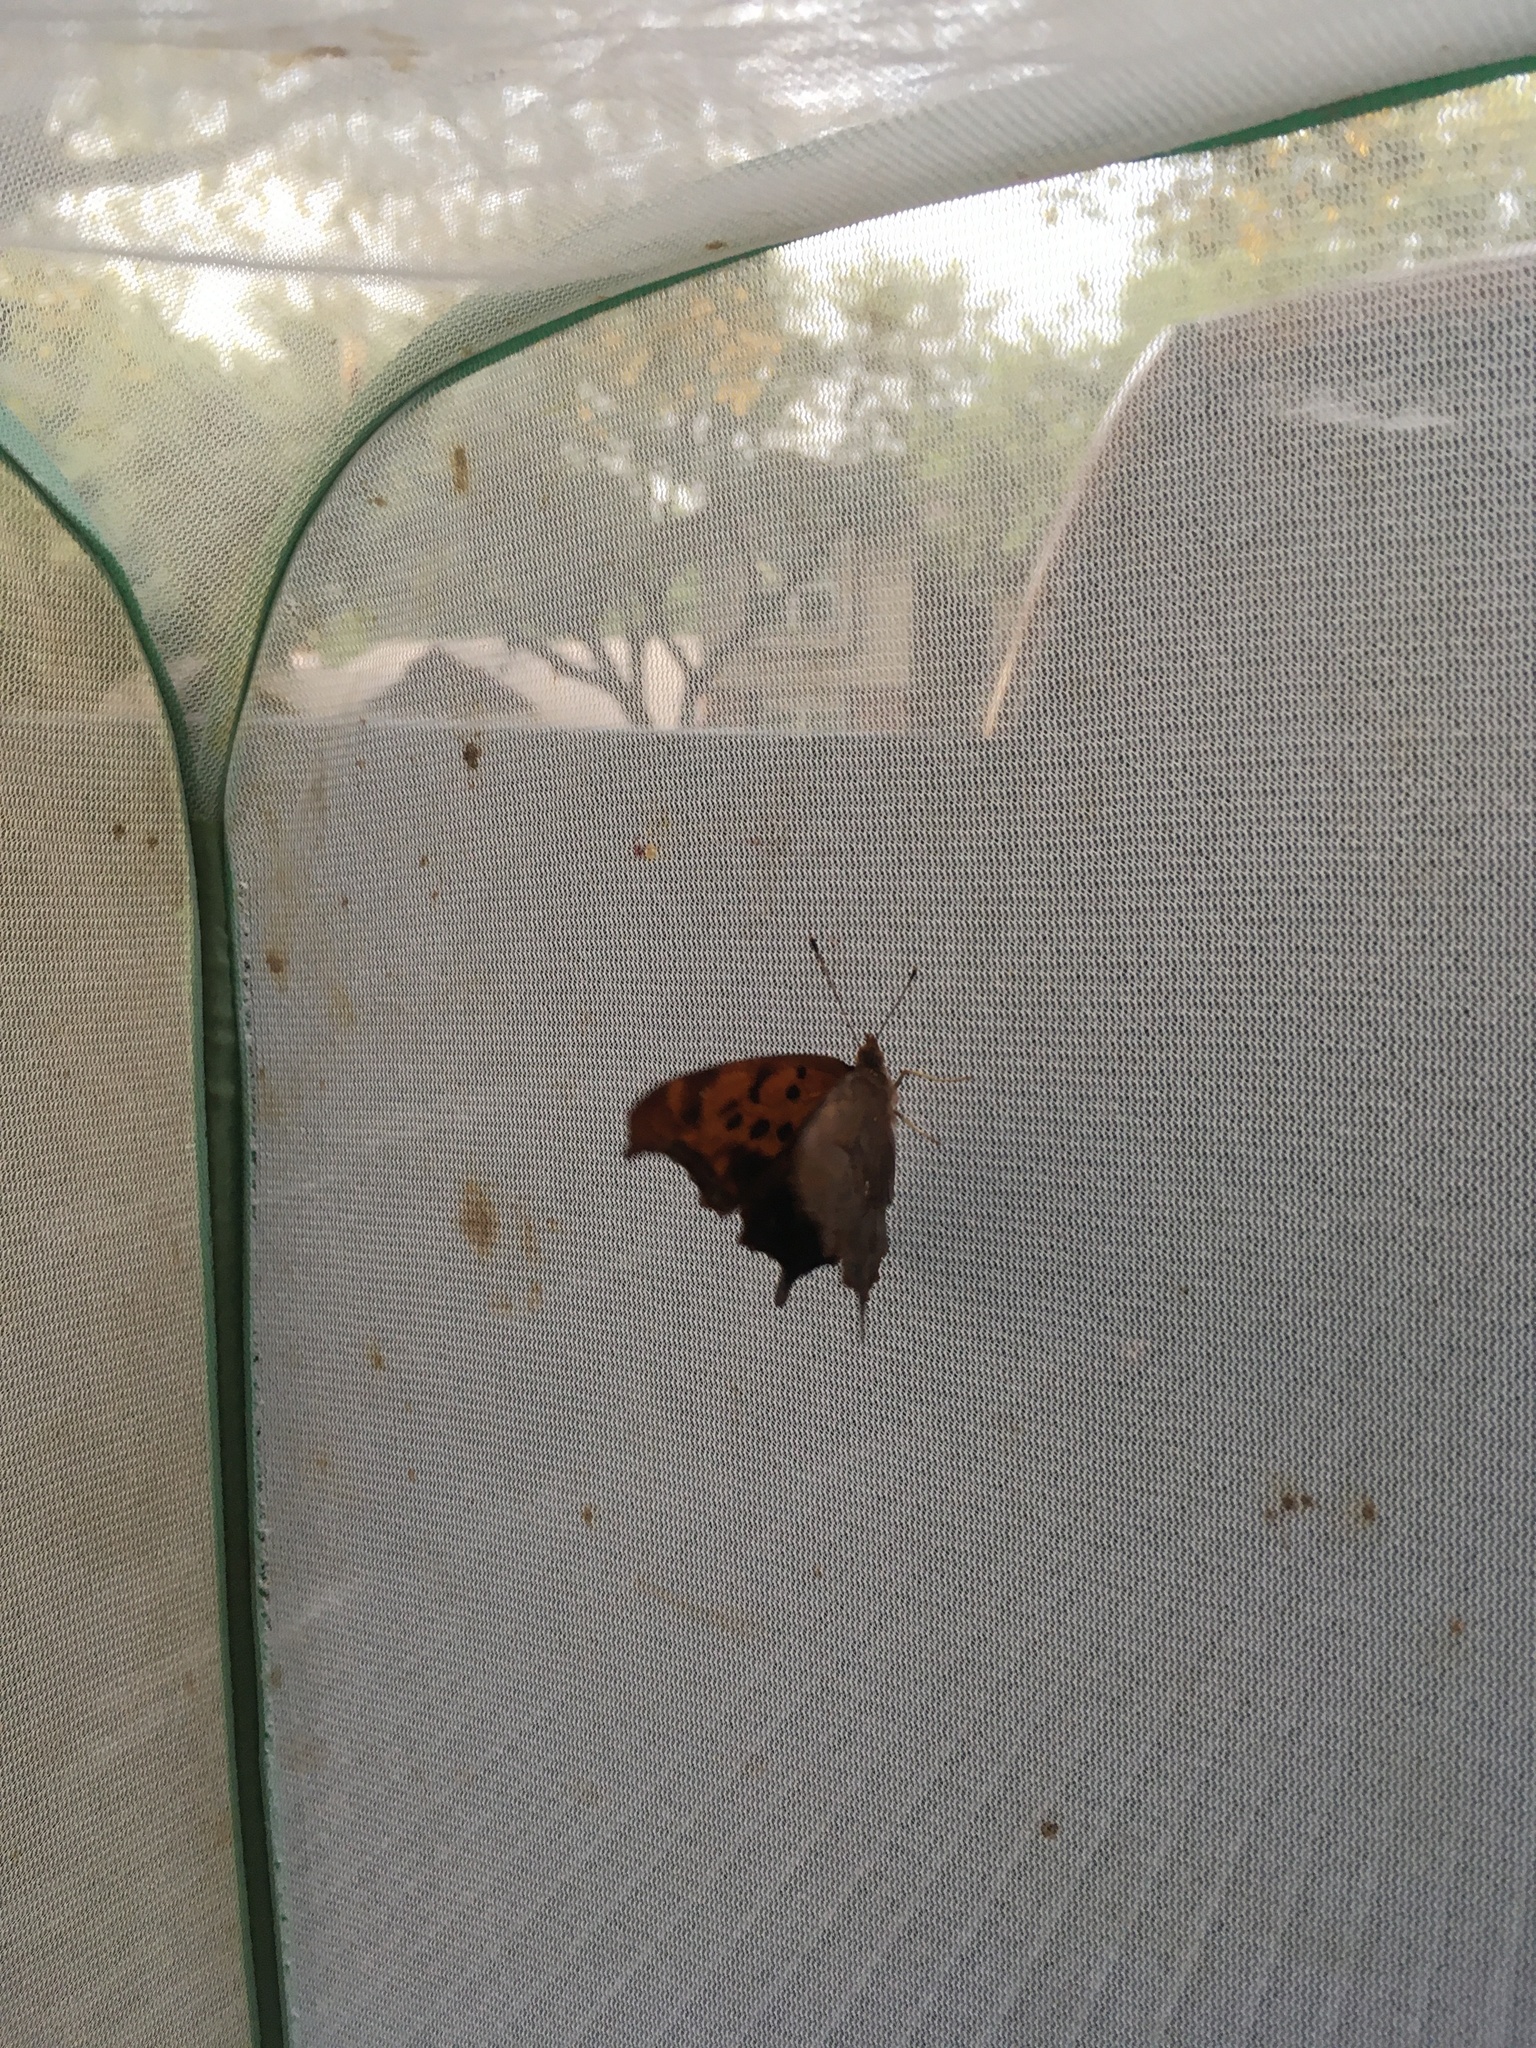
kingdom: Animalia
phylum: Arthropoda
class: Insecta
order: Lepidoptera
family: Nymphalidae
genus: Polygonia
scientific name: Polygonia interrogationis
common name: Question mark
